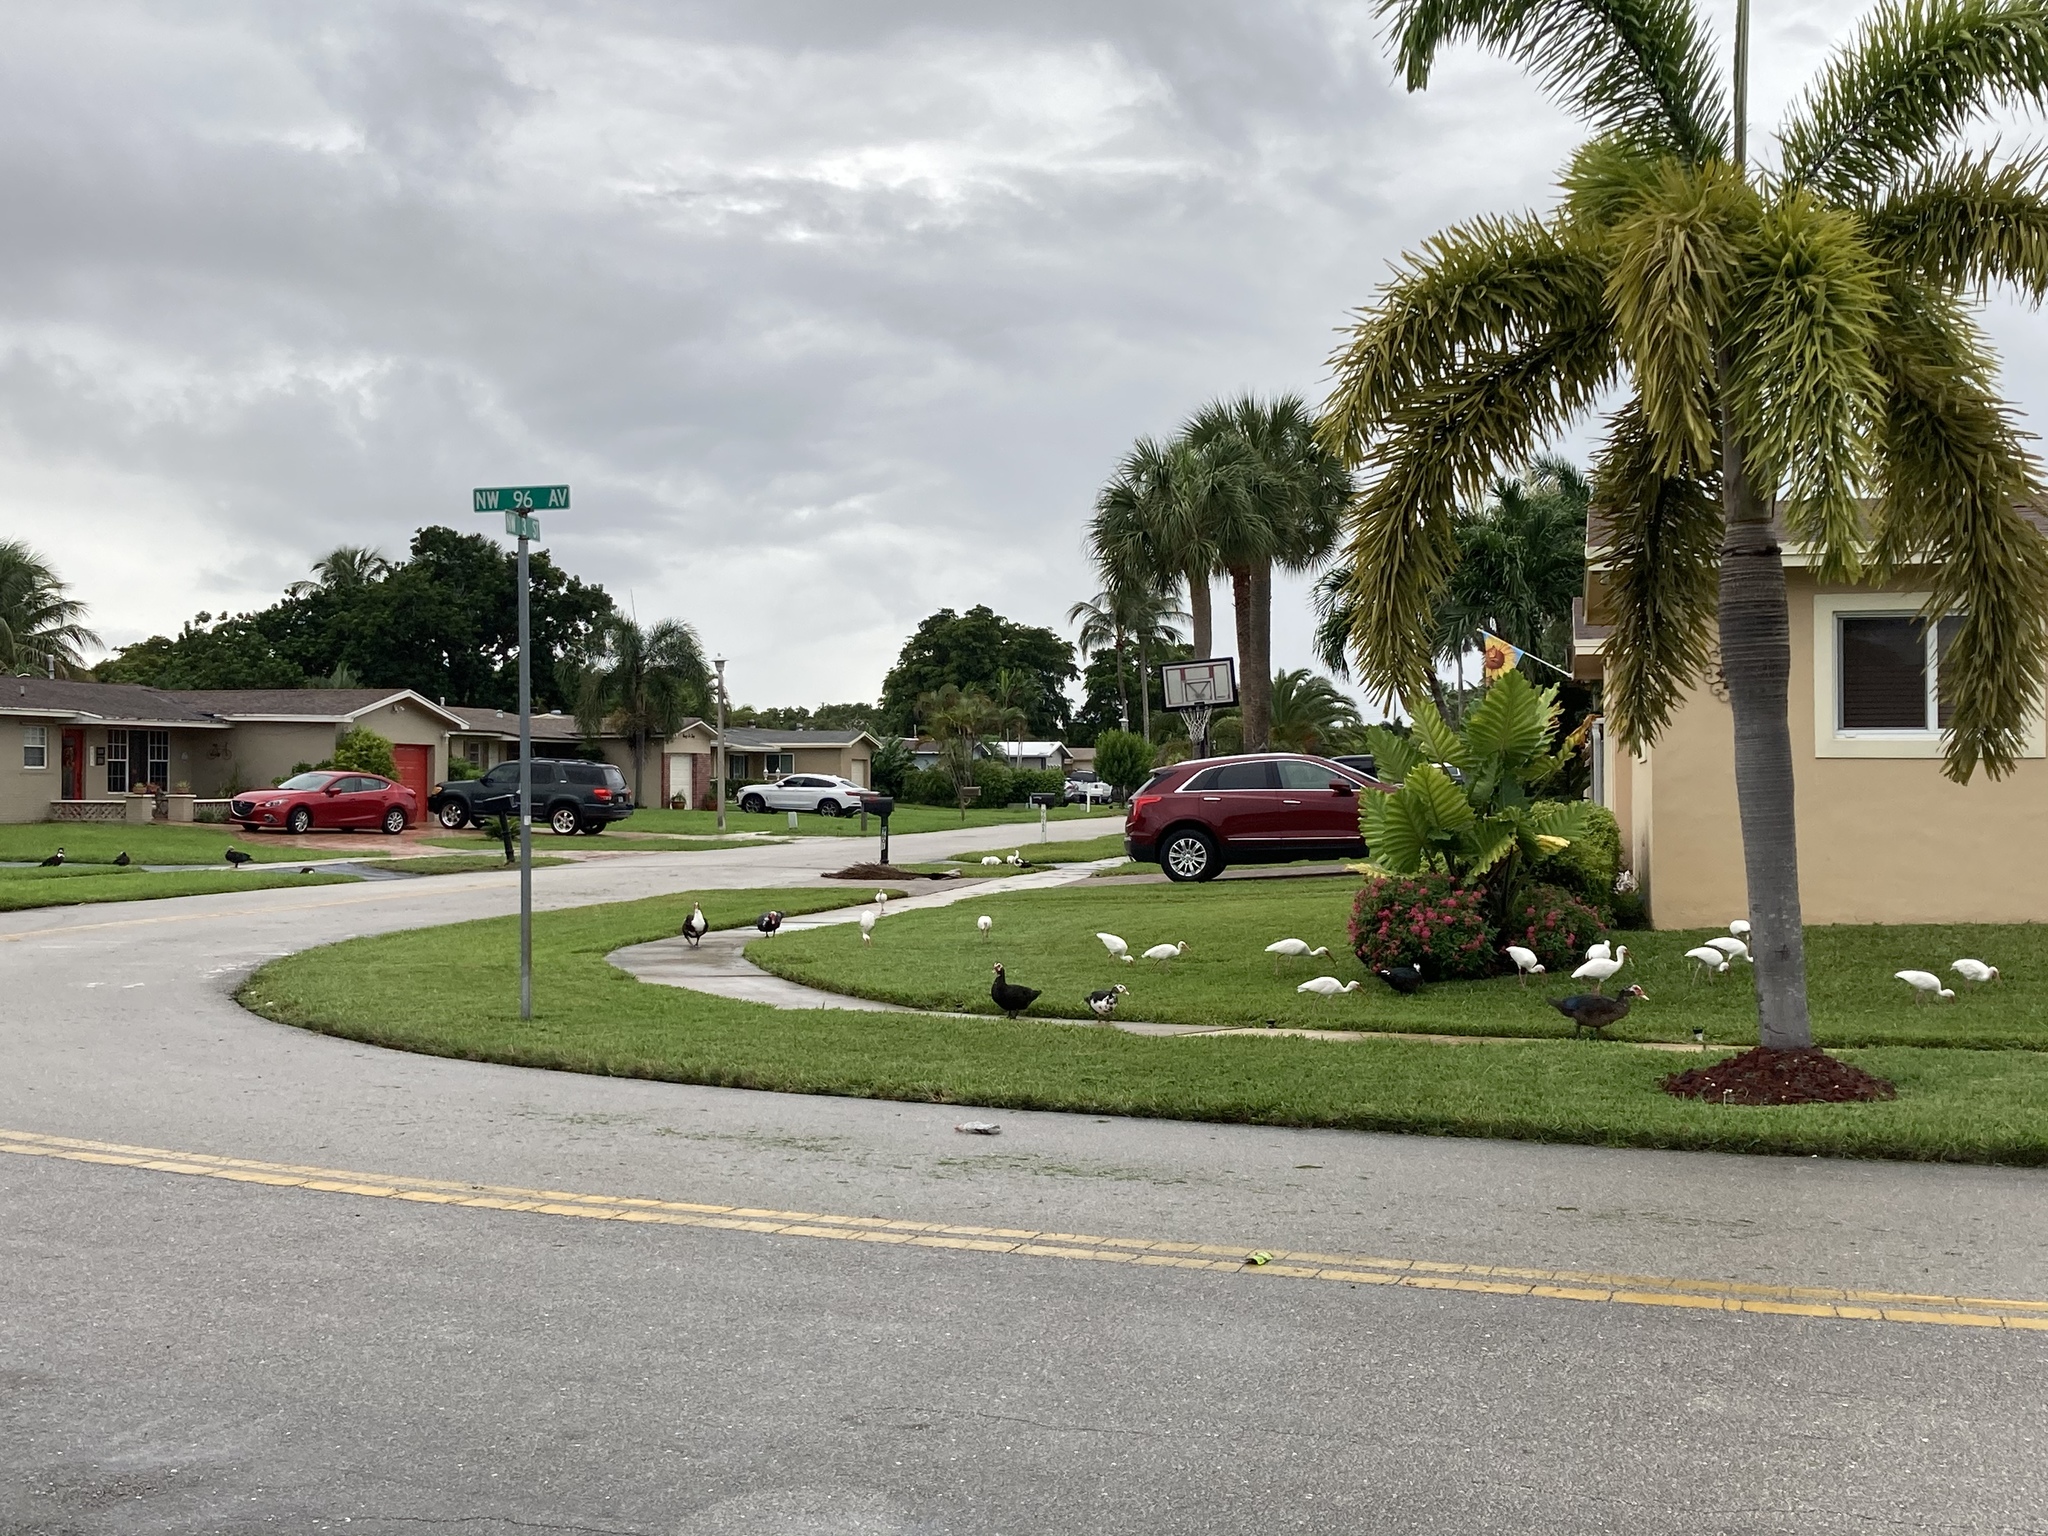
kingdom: Animalia
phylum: Chordata
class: Aves
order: Anseriformes
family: Anatidae
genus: Cairina
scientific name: Cairina moschata
